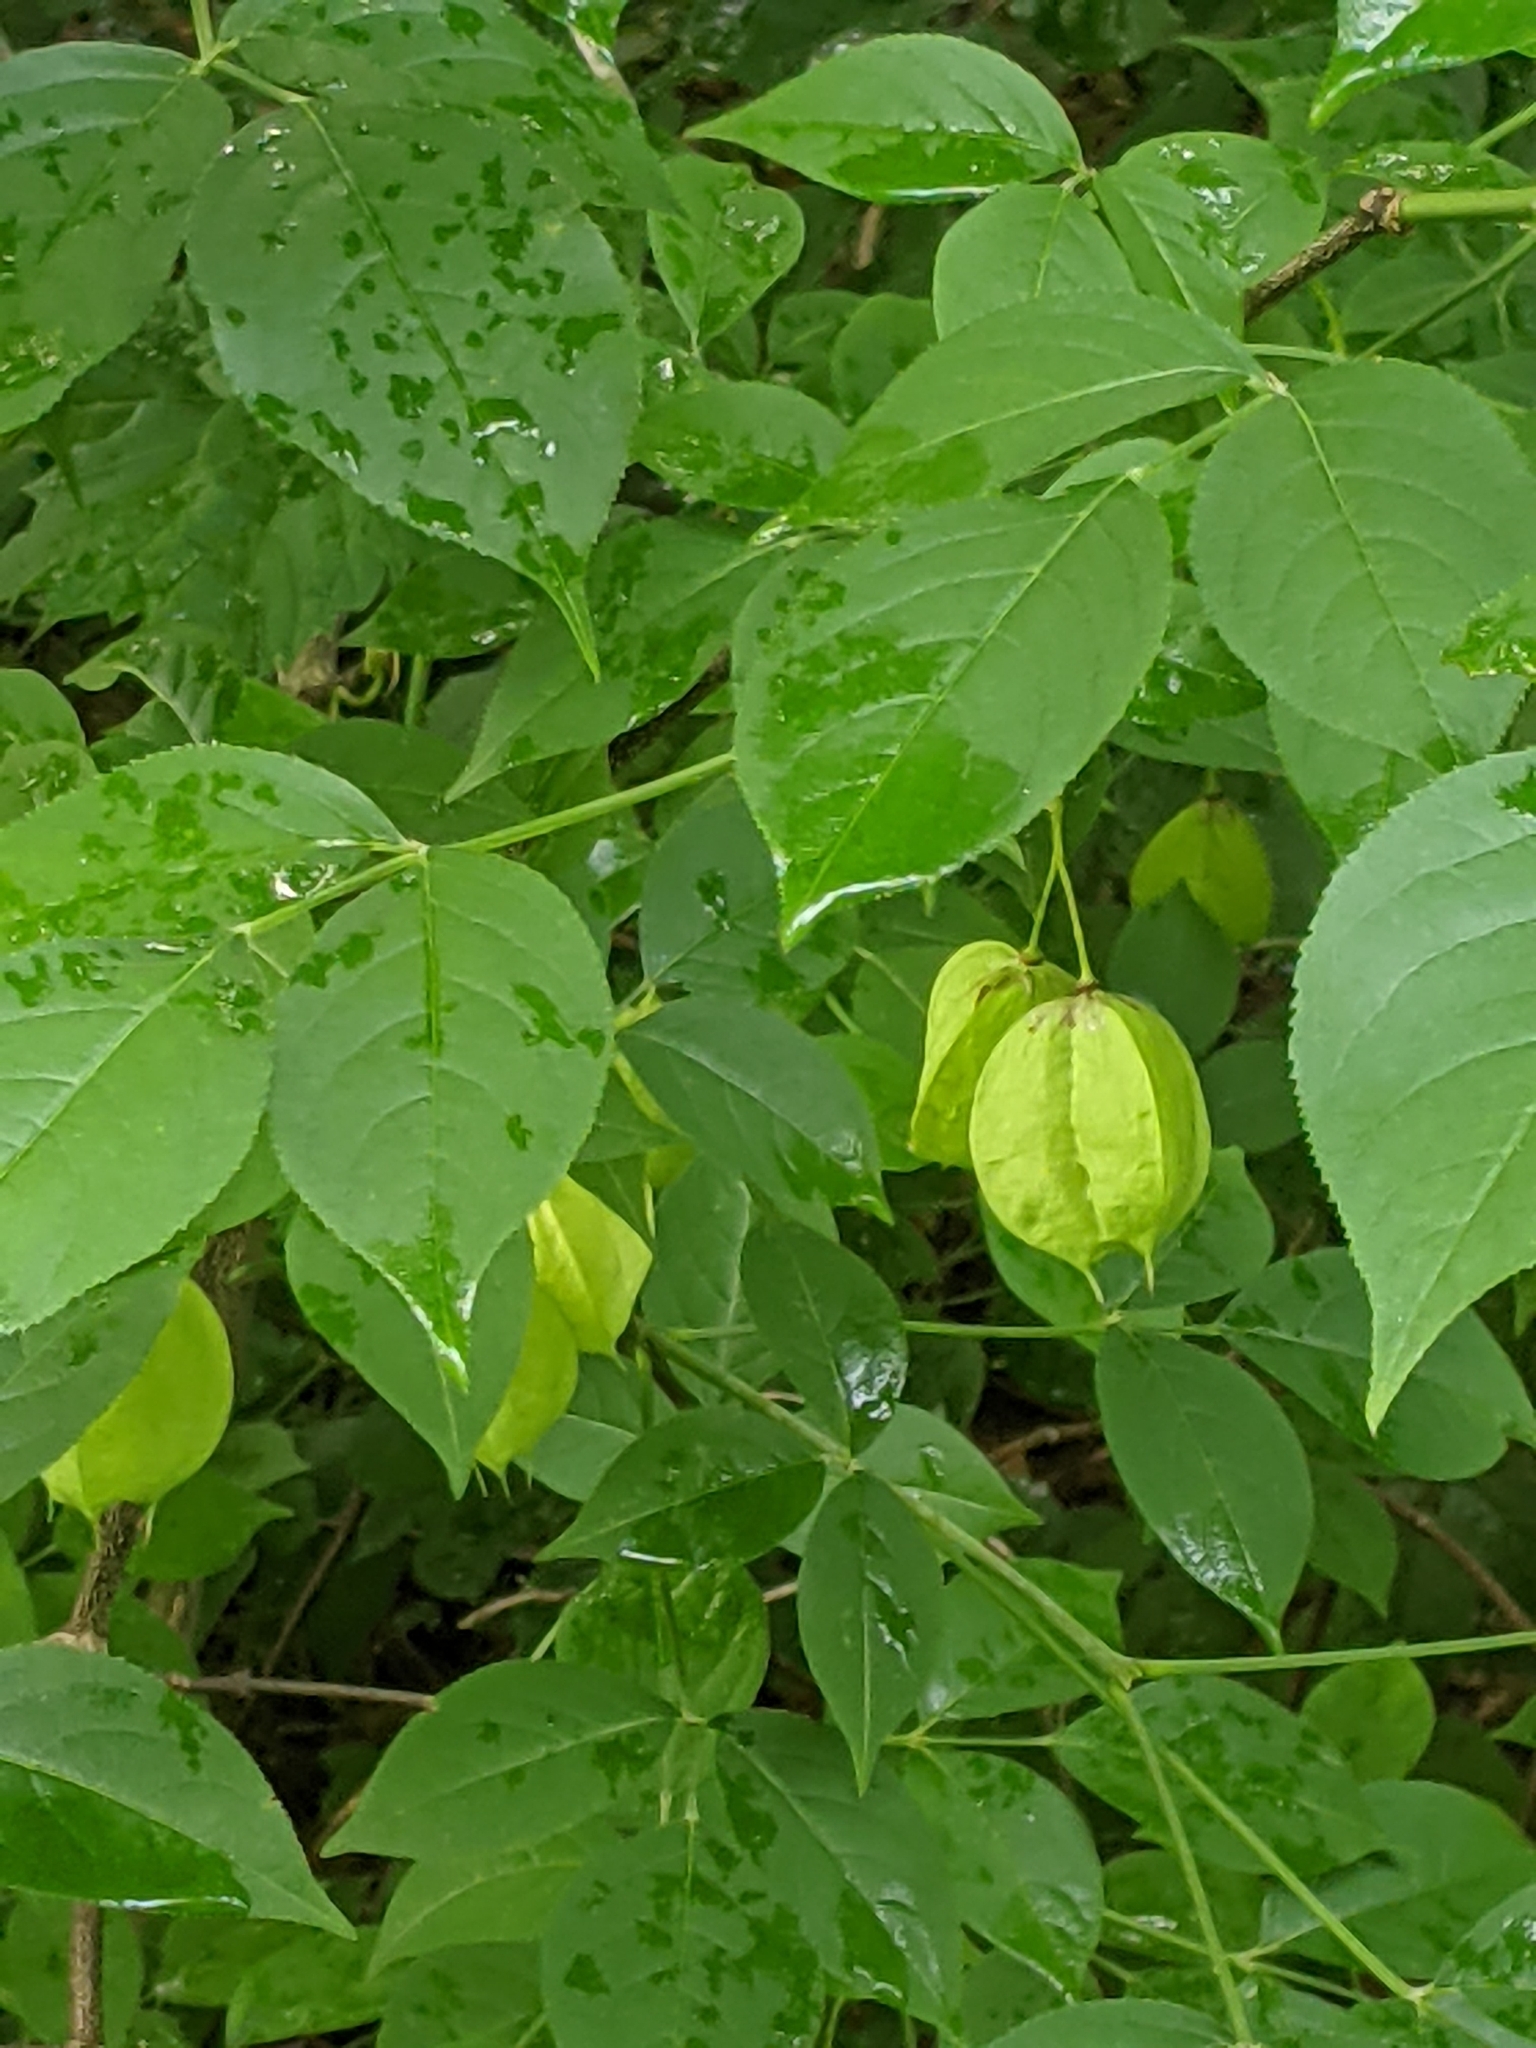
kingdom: Plantae
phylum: Tracheophyta
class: Magnoliopsida
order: Crossosomatales
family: Staphyleaceae
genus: Staphylea
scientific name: Staphylea trifolia
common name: American bladdernut
